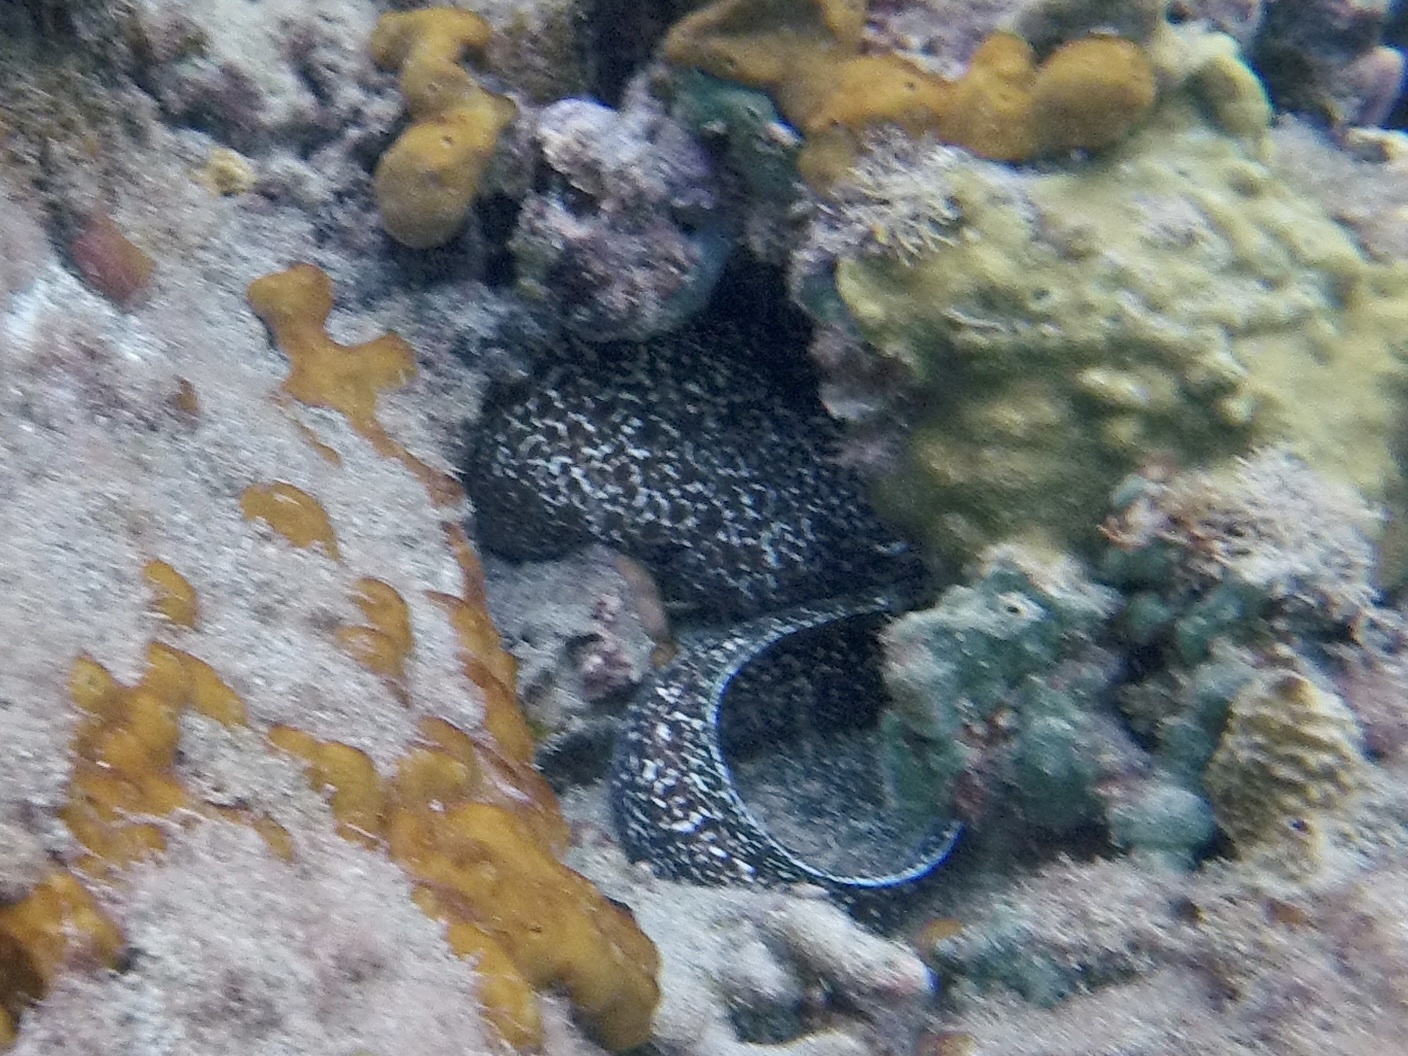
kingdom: Animalia
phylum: Chordata
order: Anguilliformes
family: Muraenidae
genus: Gymnothorax
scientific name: Gymnothorax moringa
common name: Spotted moray
